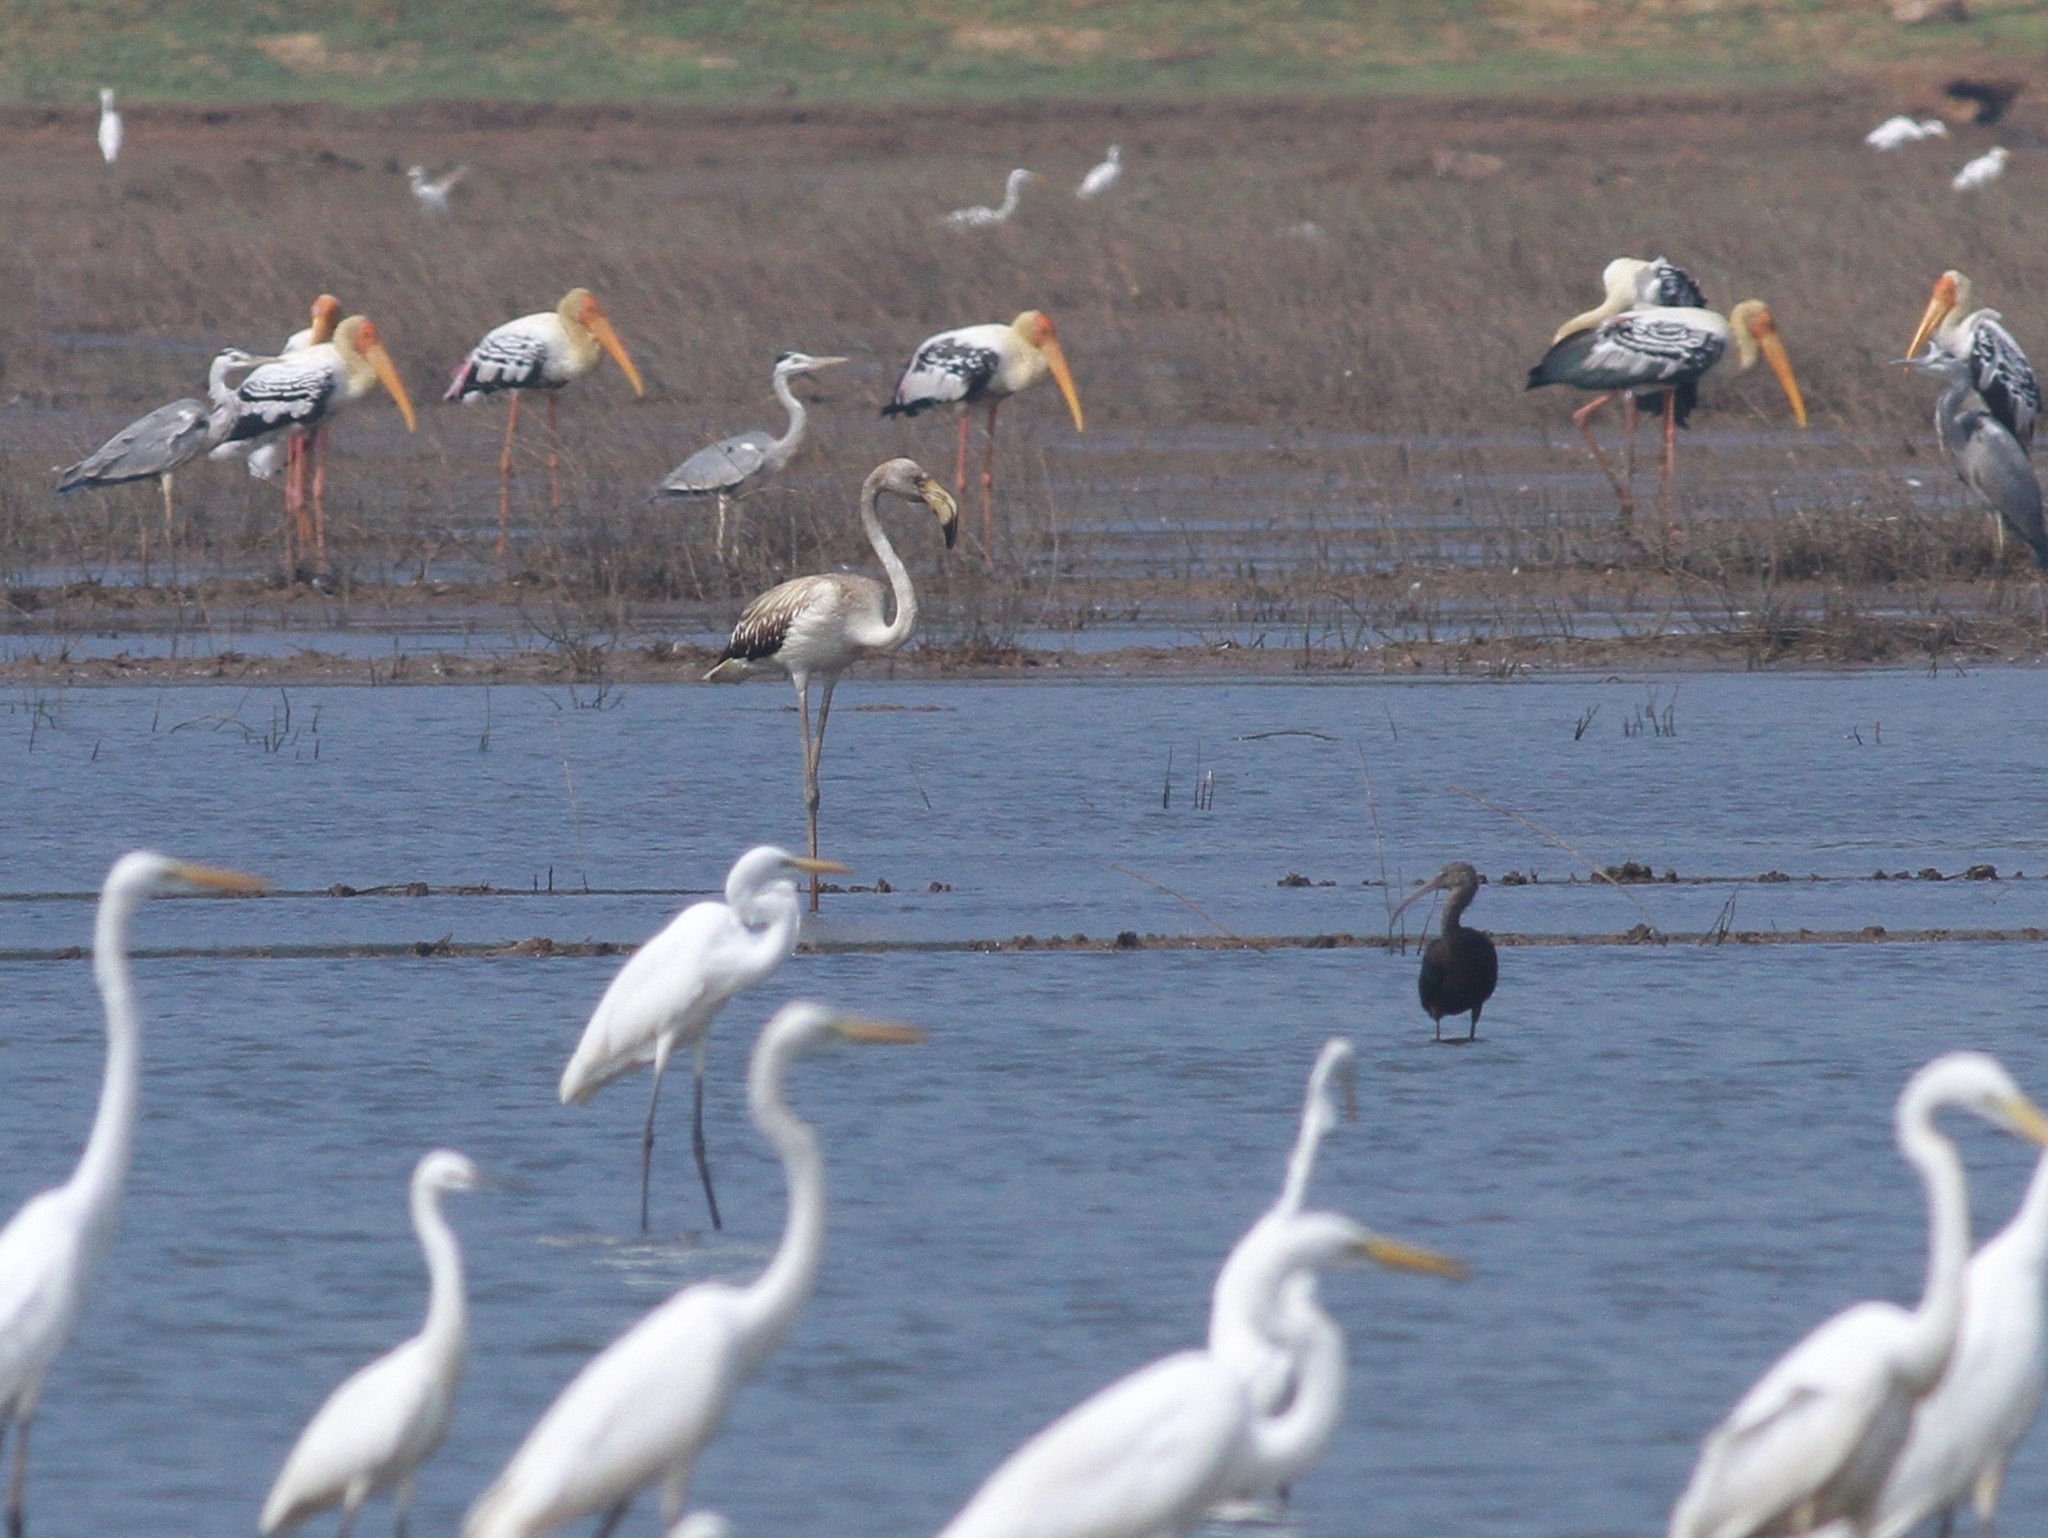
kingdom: Animalia
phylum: Chordata
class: Aves
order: Phoenicopteriformes
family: Phoenicopteridae
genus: Phoenicopterus
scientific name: Phoenicopterus roseus
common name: Greater flamingo
